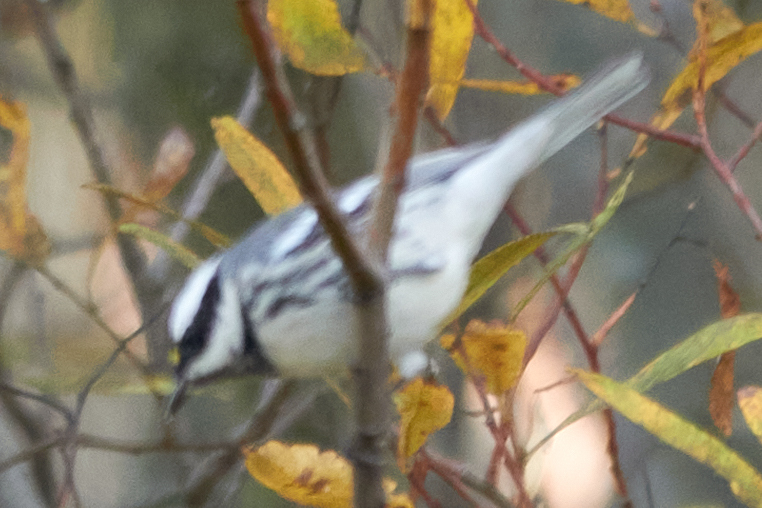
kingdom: Animalia
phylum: Chordata
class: Aves
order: Passeriformes
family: Parulidae
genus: Setophaga
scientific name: Setophaga nigrescens
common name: Black-throated gray warbler
